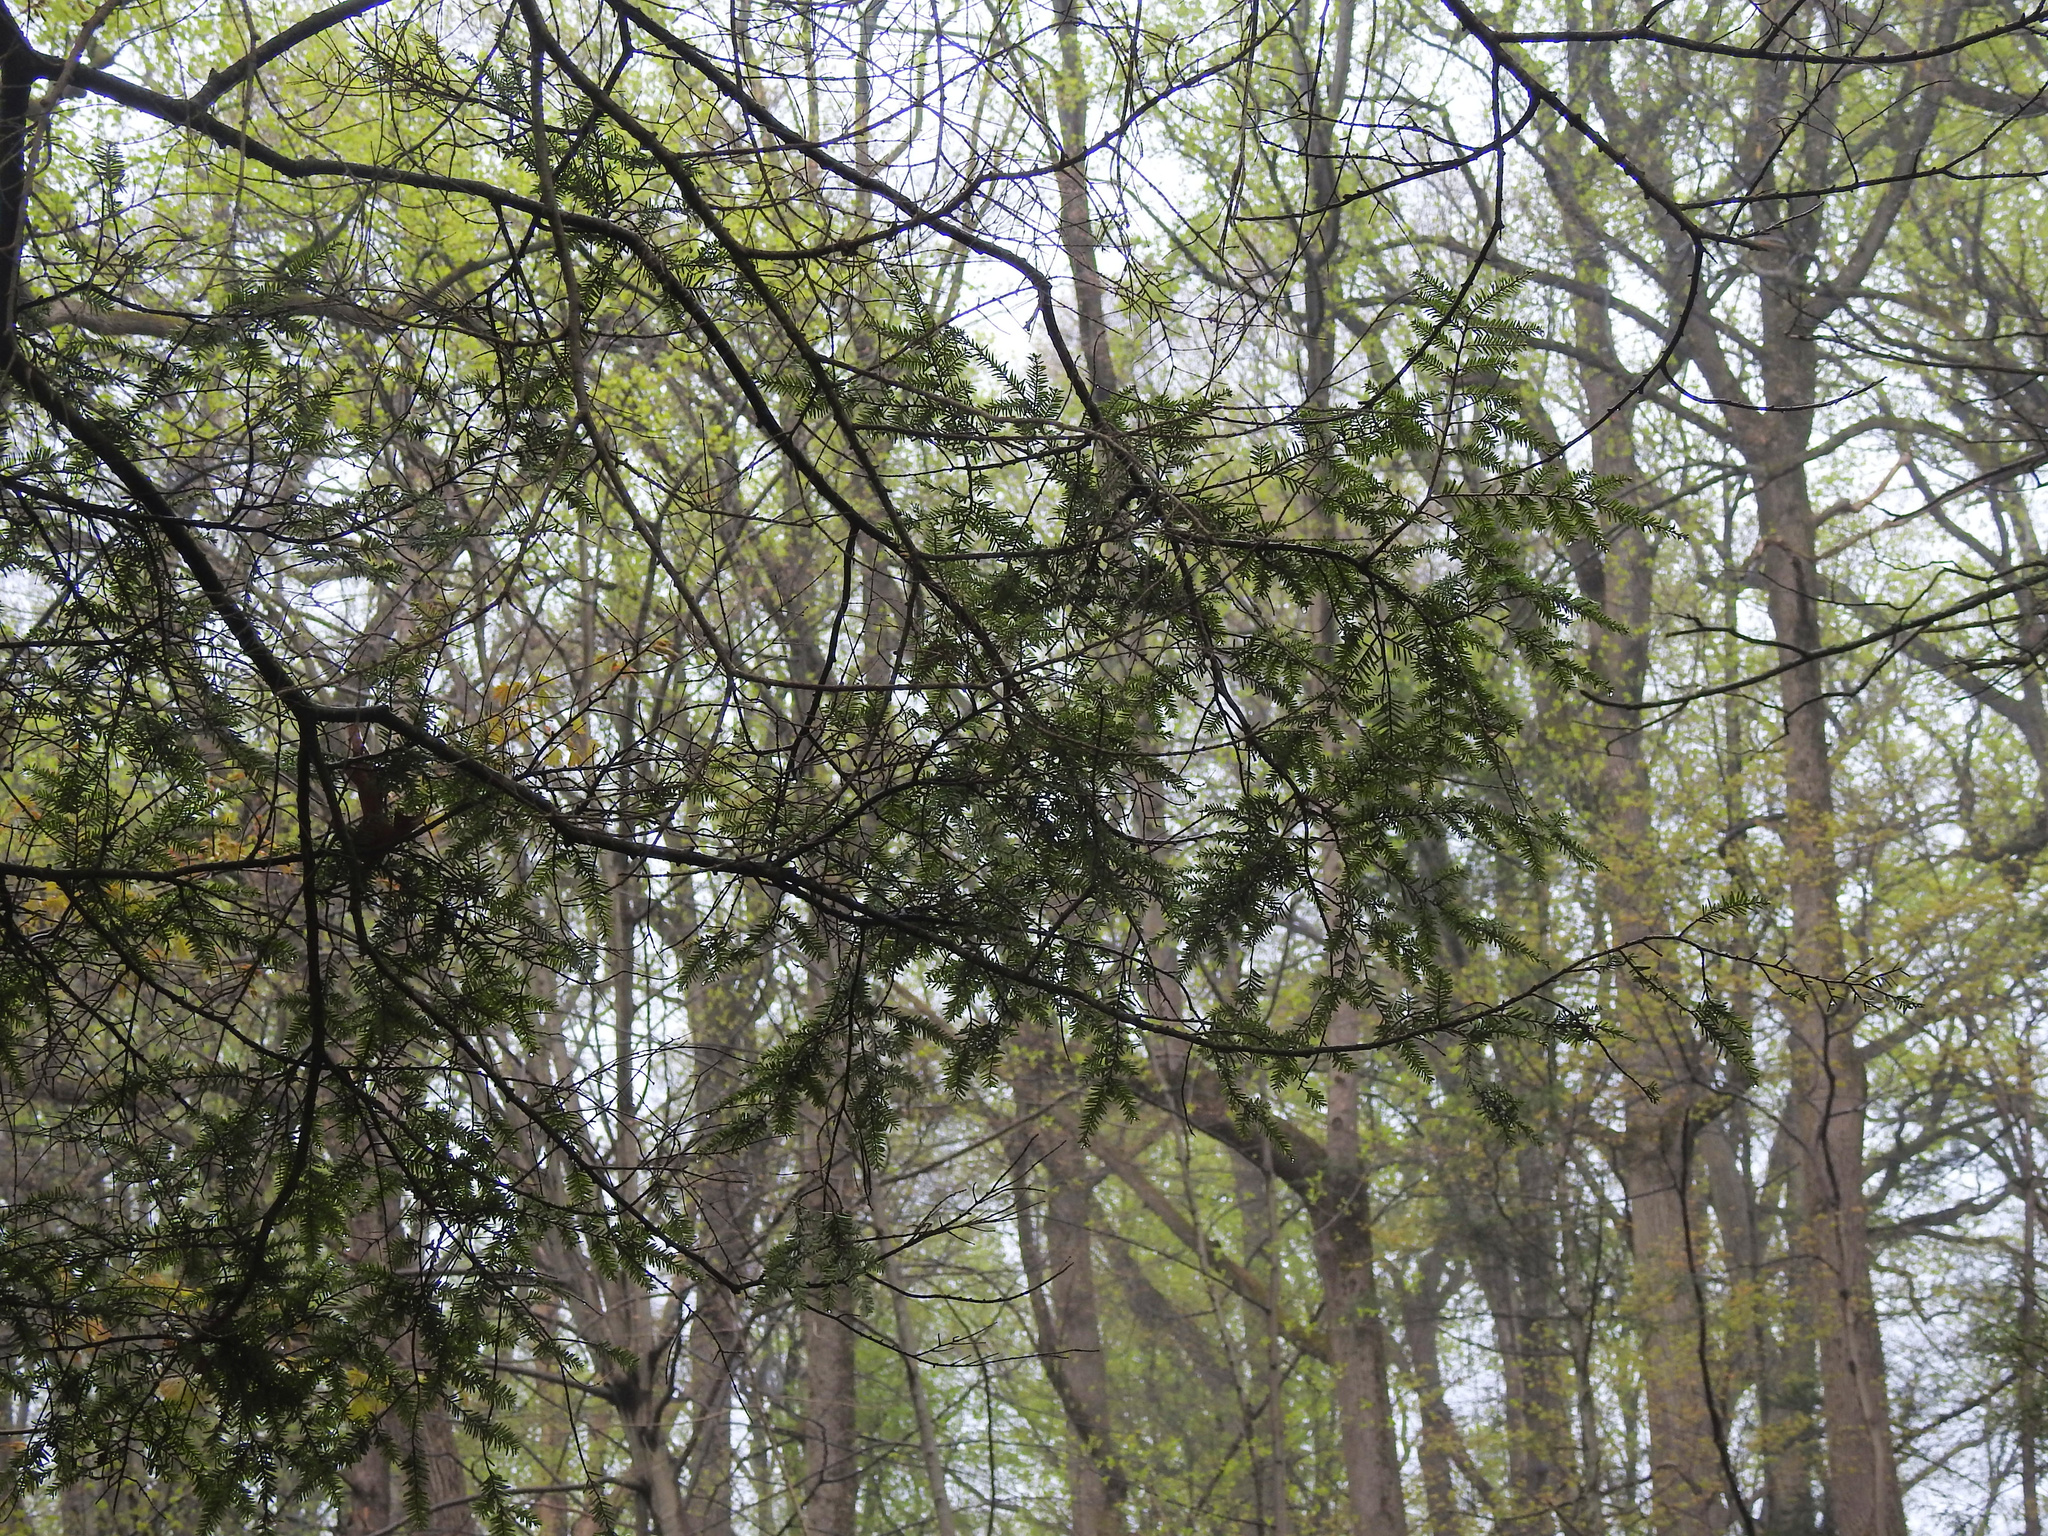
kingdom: Plantae
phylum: Tracheophyta
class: Pinopsida
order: Pinales
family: Pinaceae
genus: Tsuga
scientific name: Tsuga canadensis
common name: Eastern hemlock
